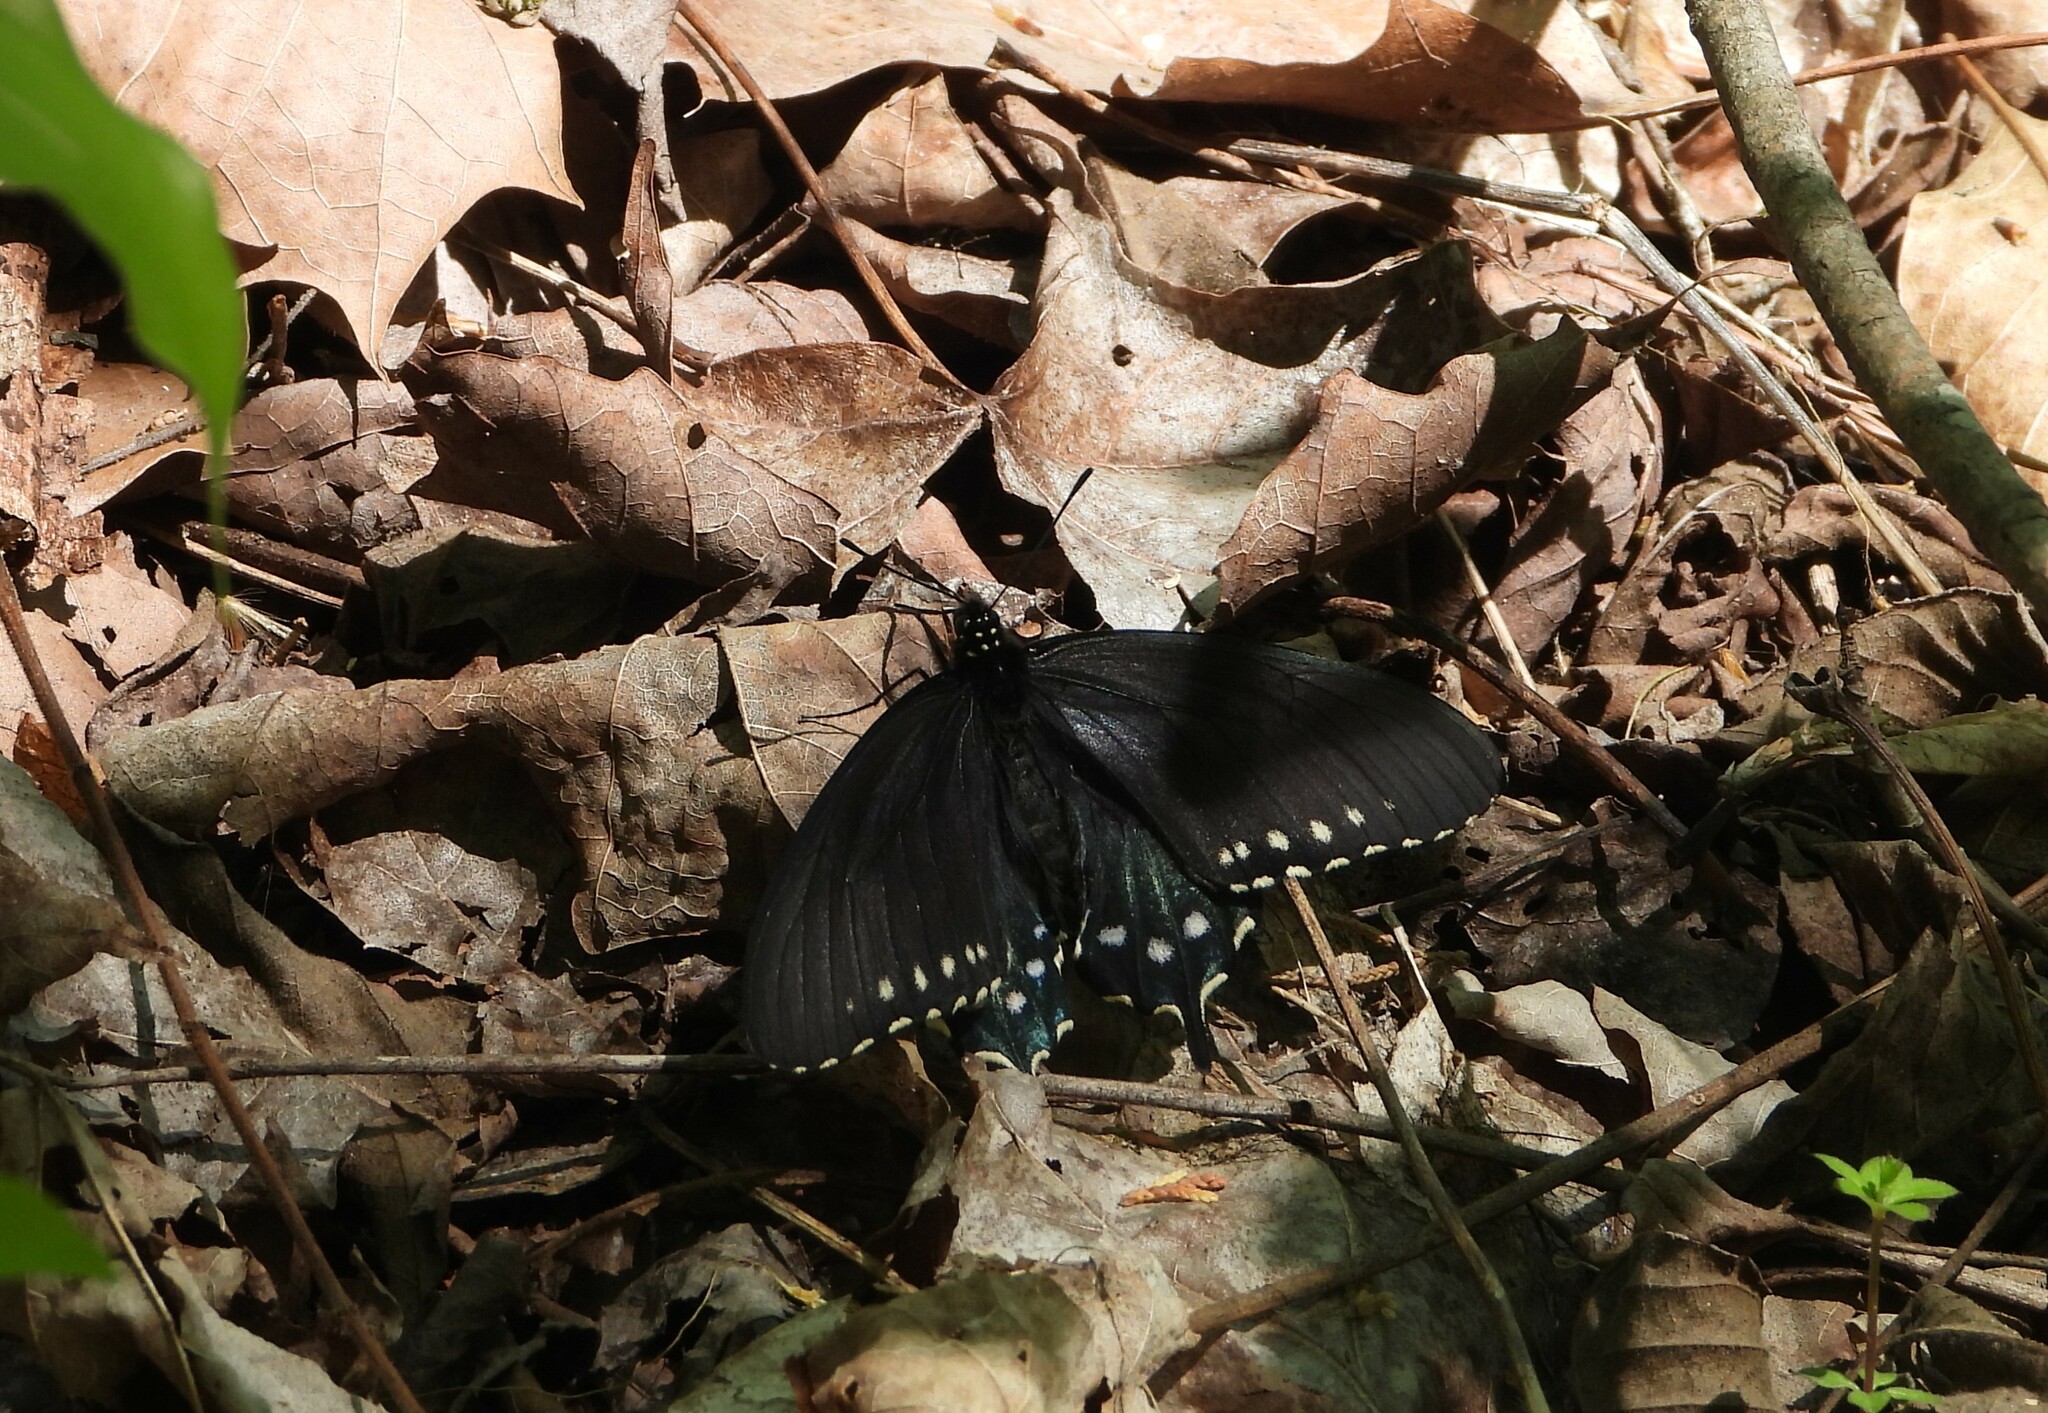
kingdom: Animalia
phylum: Arthropoda
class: Insecta
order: Lepidoptera
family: Papilionidae
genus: Battus
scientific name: Battus philenor
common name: Pipevine swallowtail
